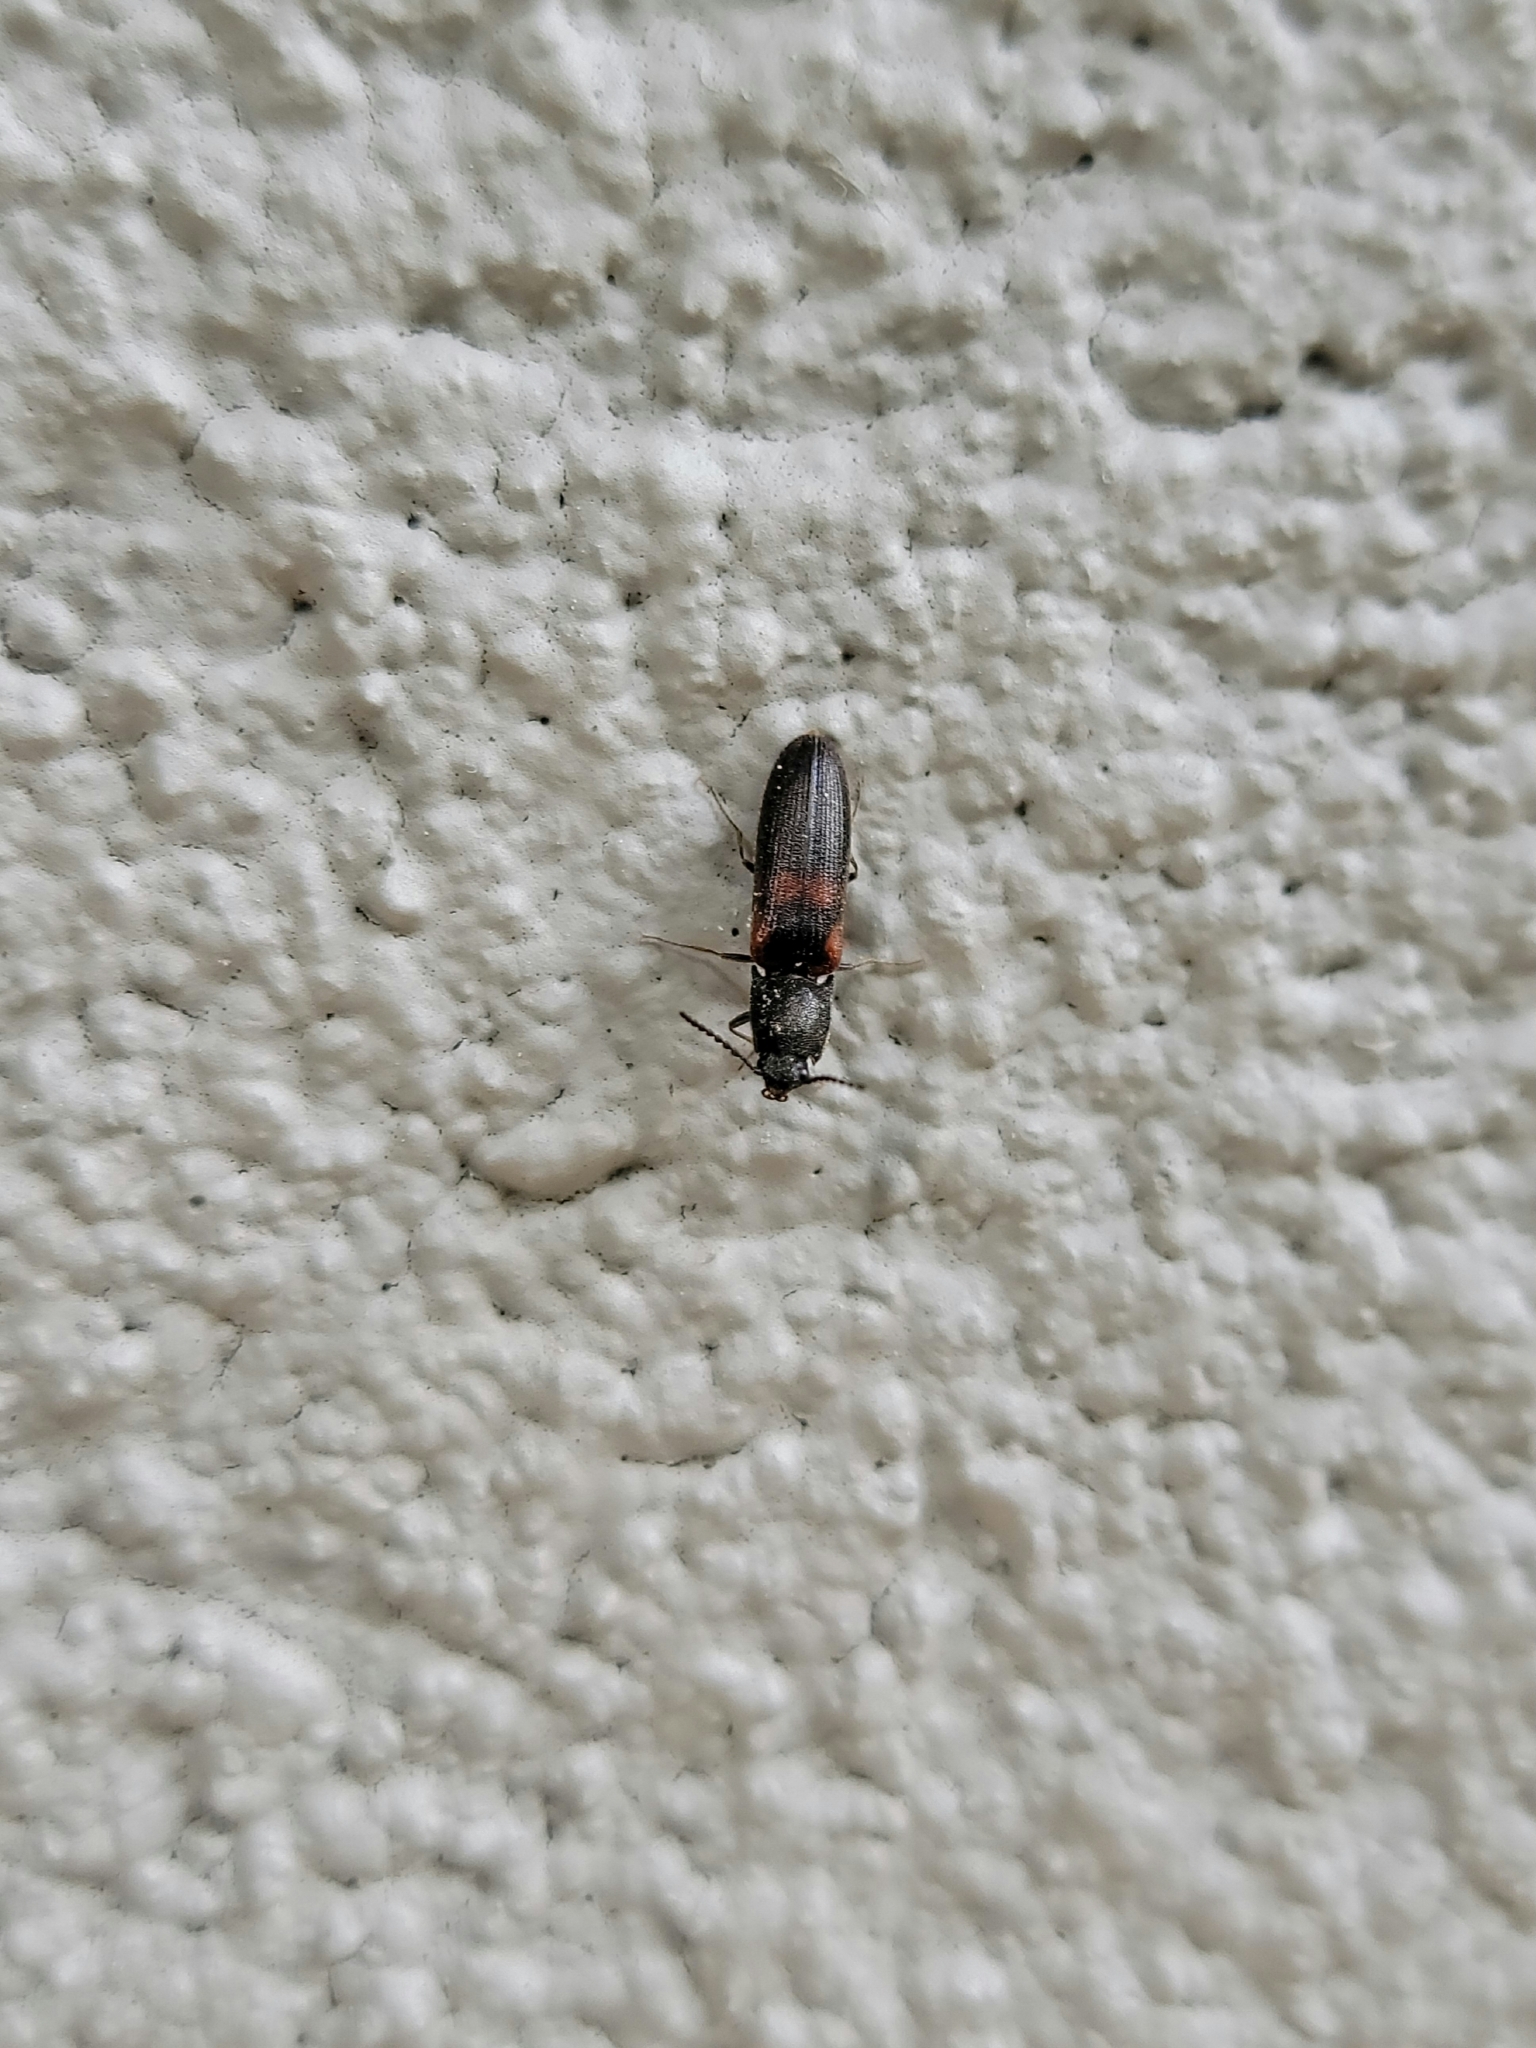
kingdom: Animalia
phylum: Arthropoda
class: Insecta
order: Coleoptera
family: Elateridae
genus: Gambrinus
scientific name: Gambrinus
